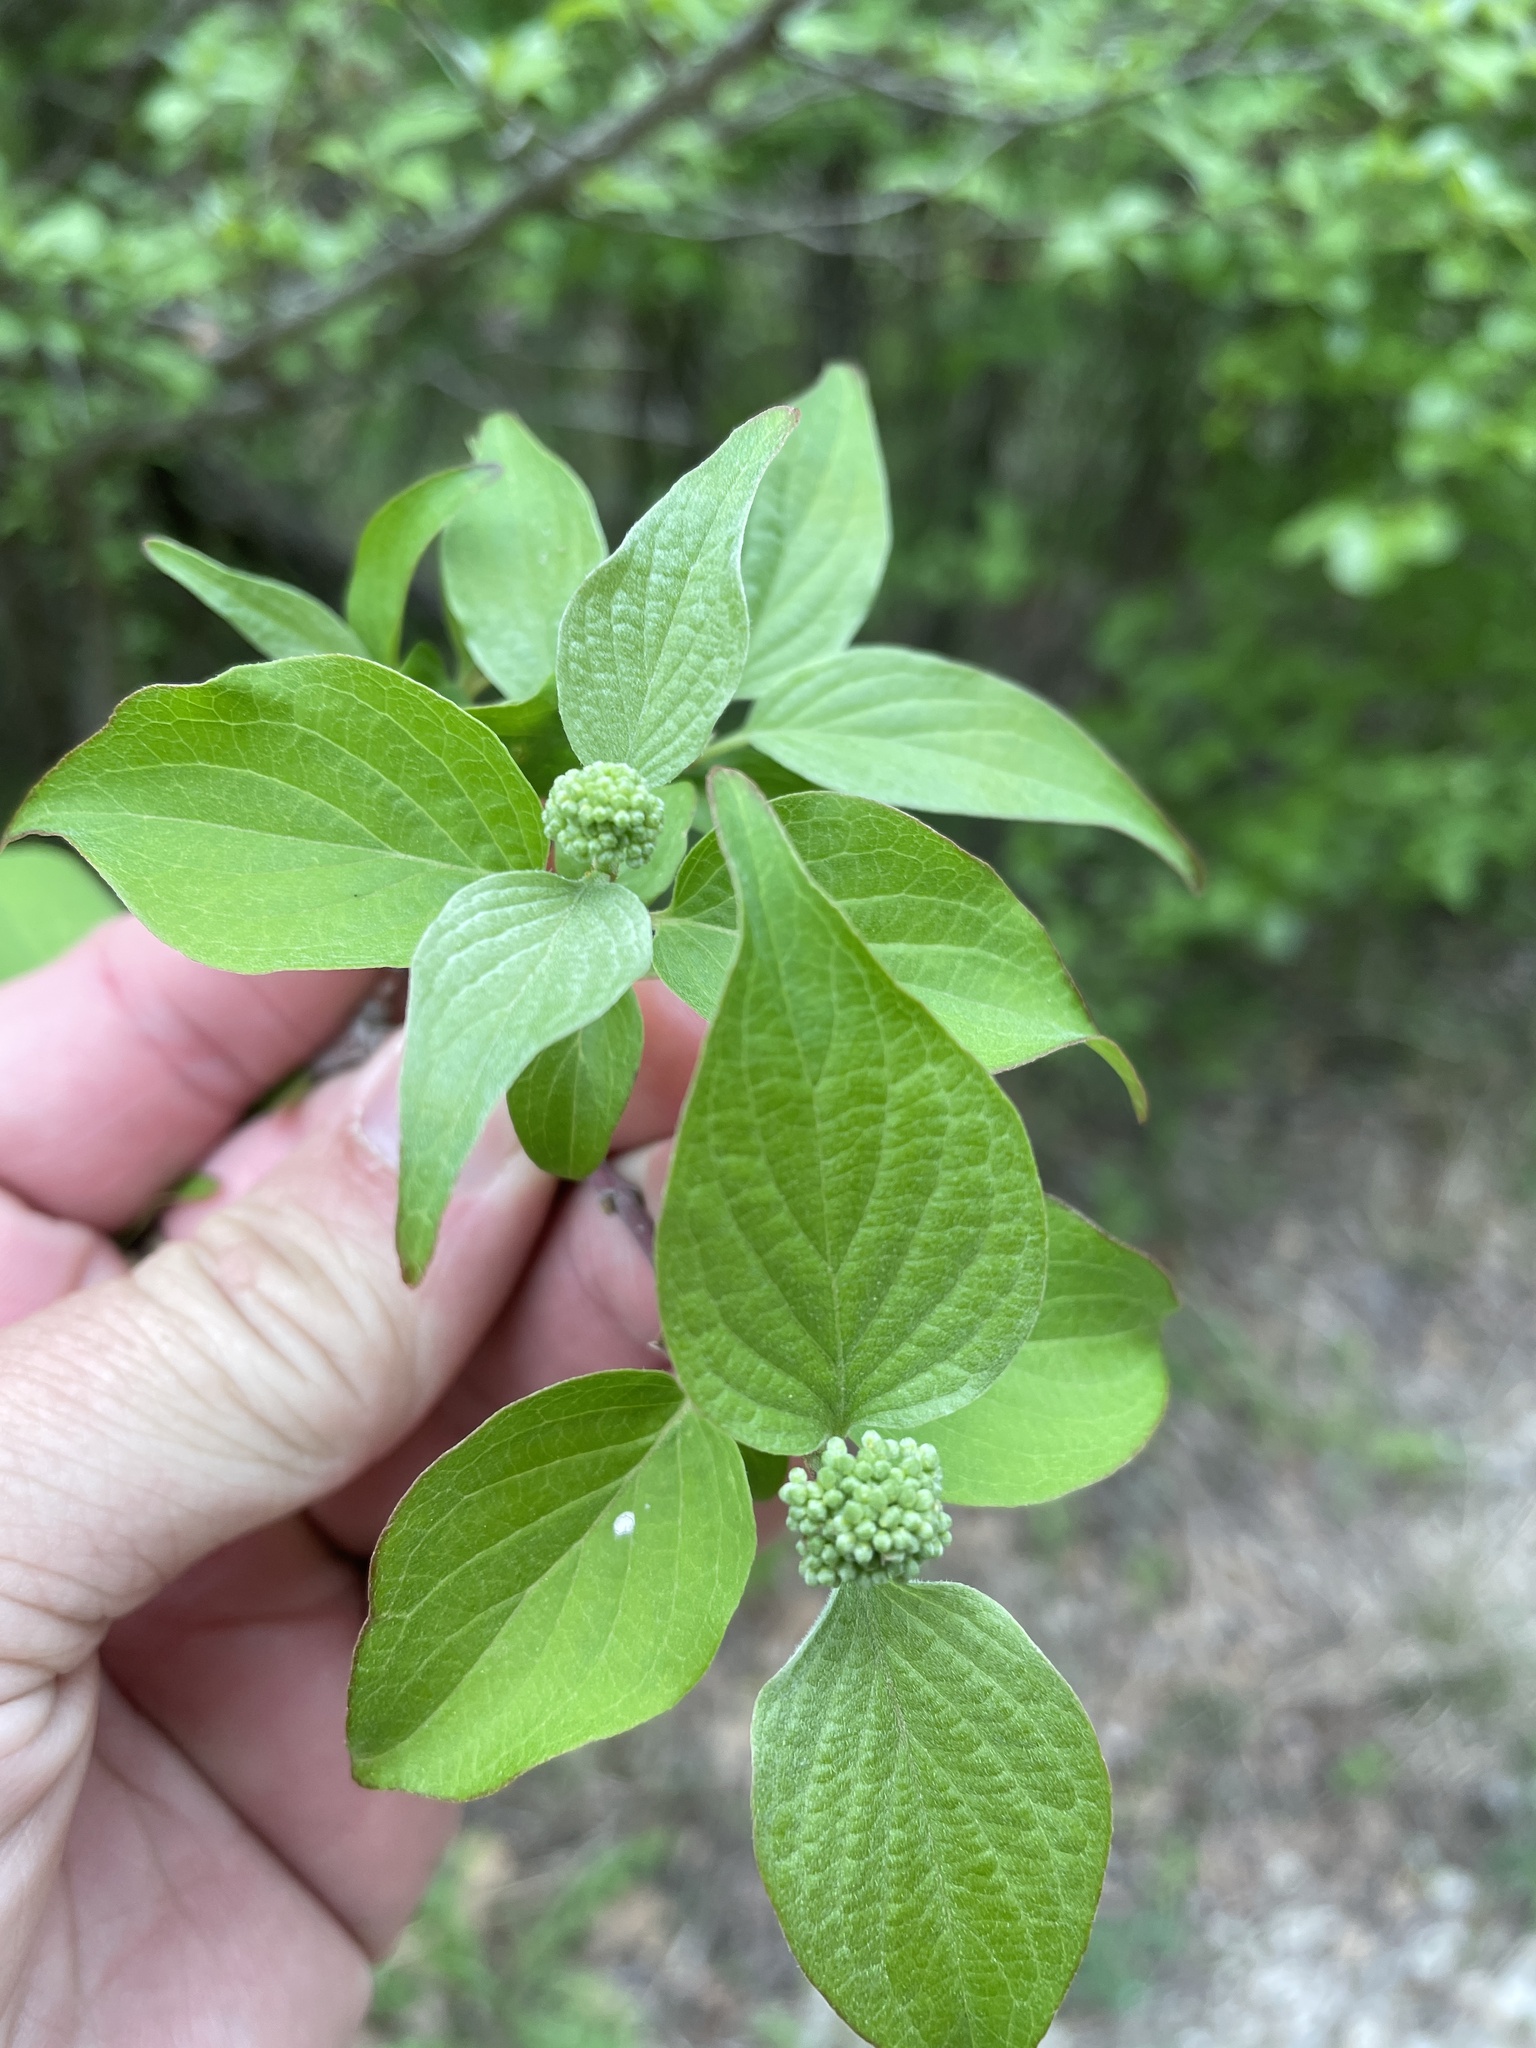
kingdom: Plantae
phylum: Tracheophyta
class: Magnoliopsida
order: Cornales
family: Cornaceae
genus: Cornus
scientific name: Cornus drummondii
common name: Rough-leaf dogwood
